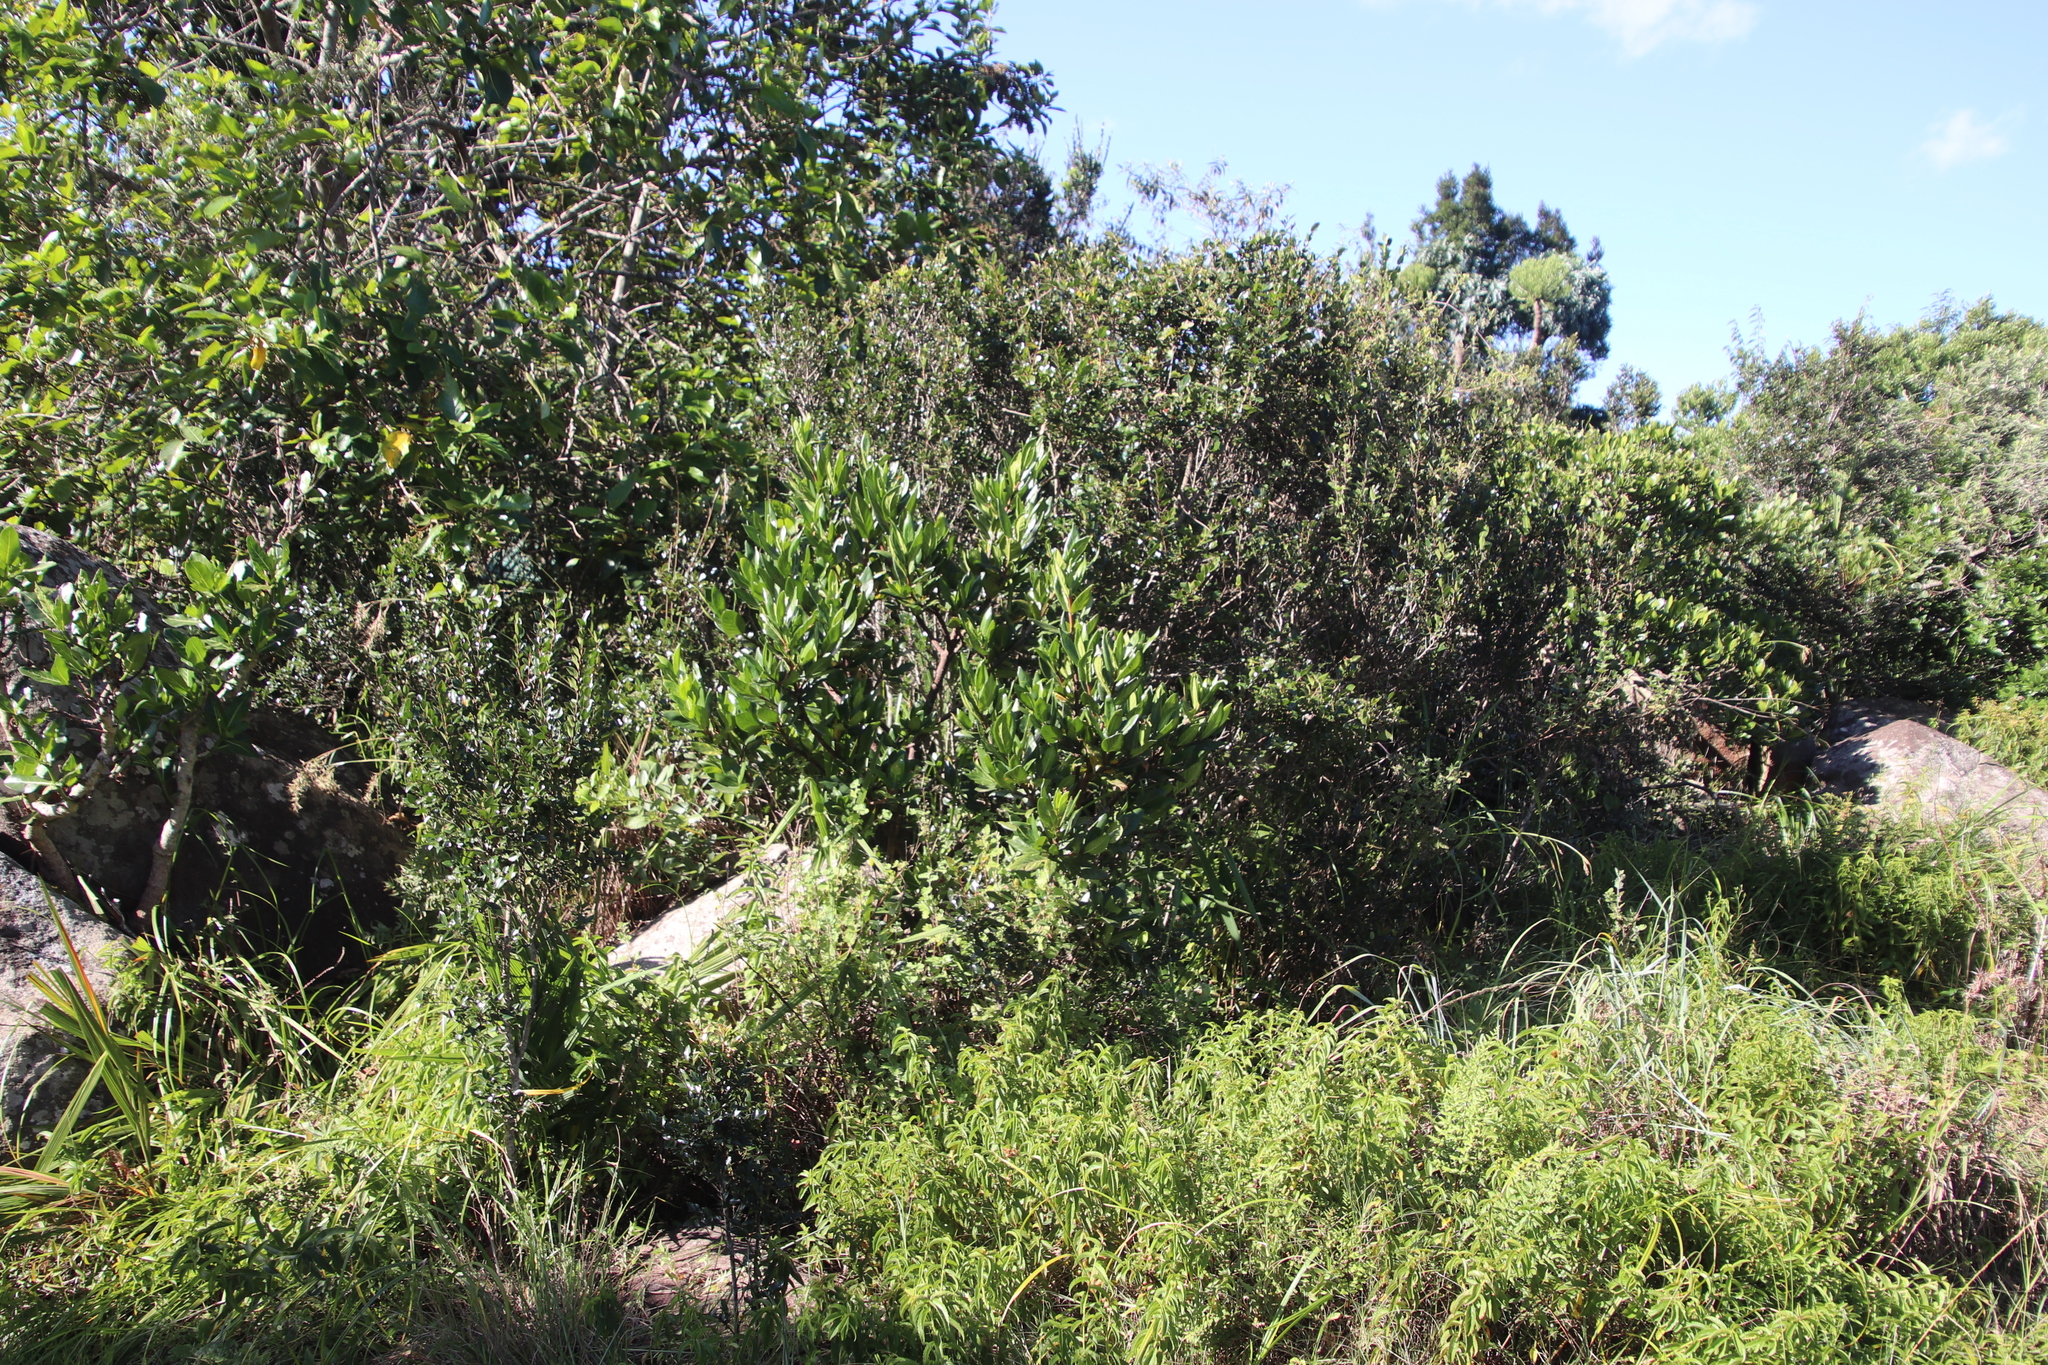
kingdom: Plantae
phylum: Tracheophyta
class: Magnoliopsida
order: Gentianales
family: Rubiaceae
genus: Burchellia
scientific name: Burchellia bubalina
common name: Wild pomegranate
